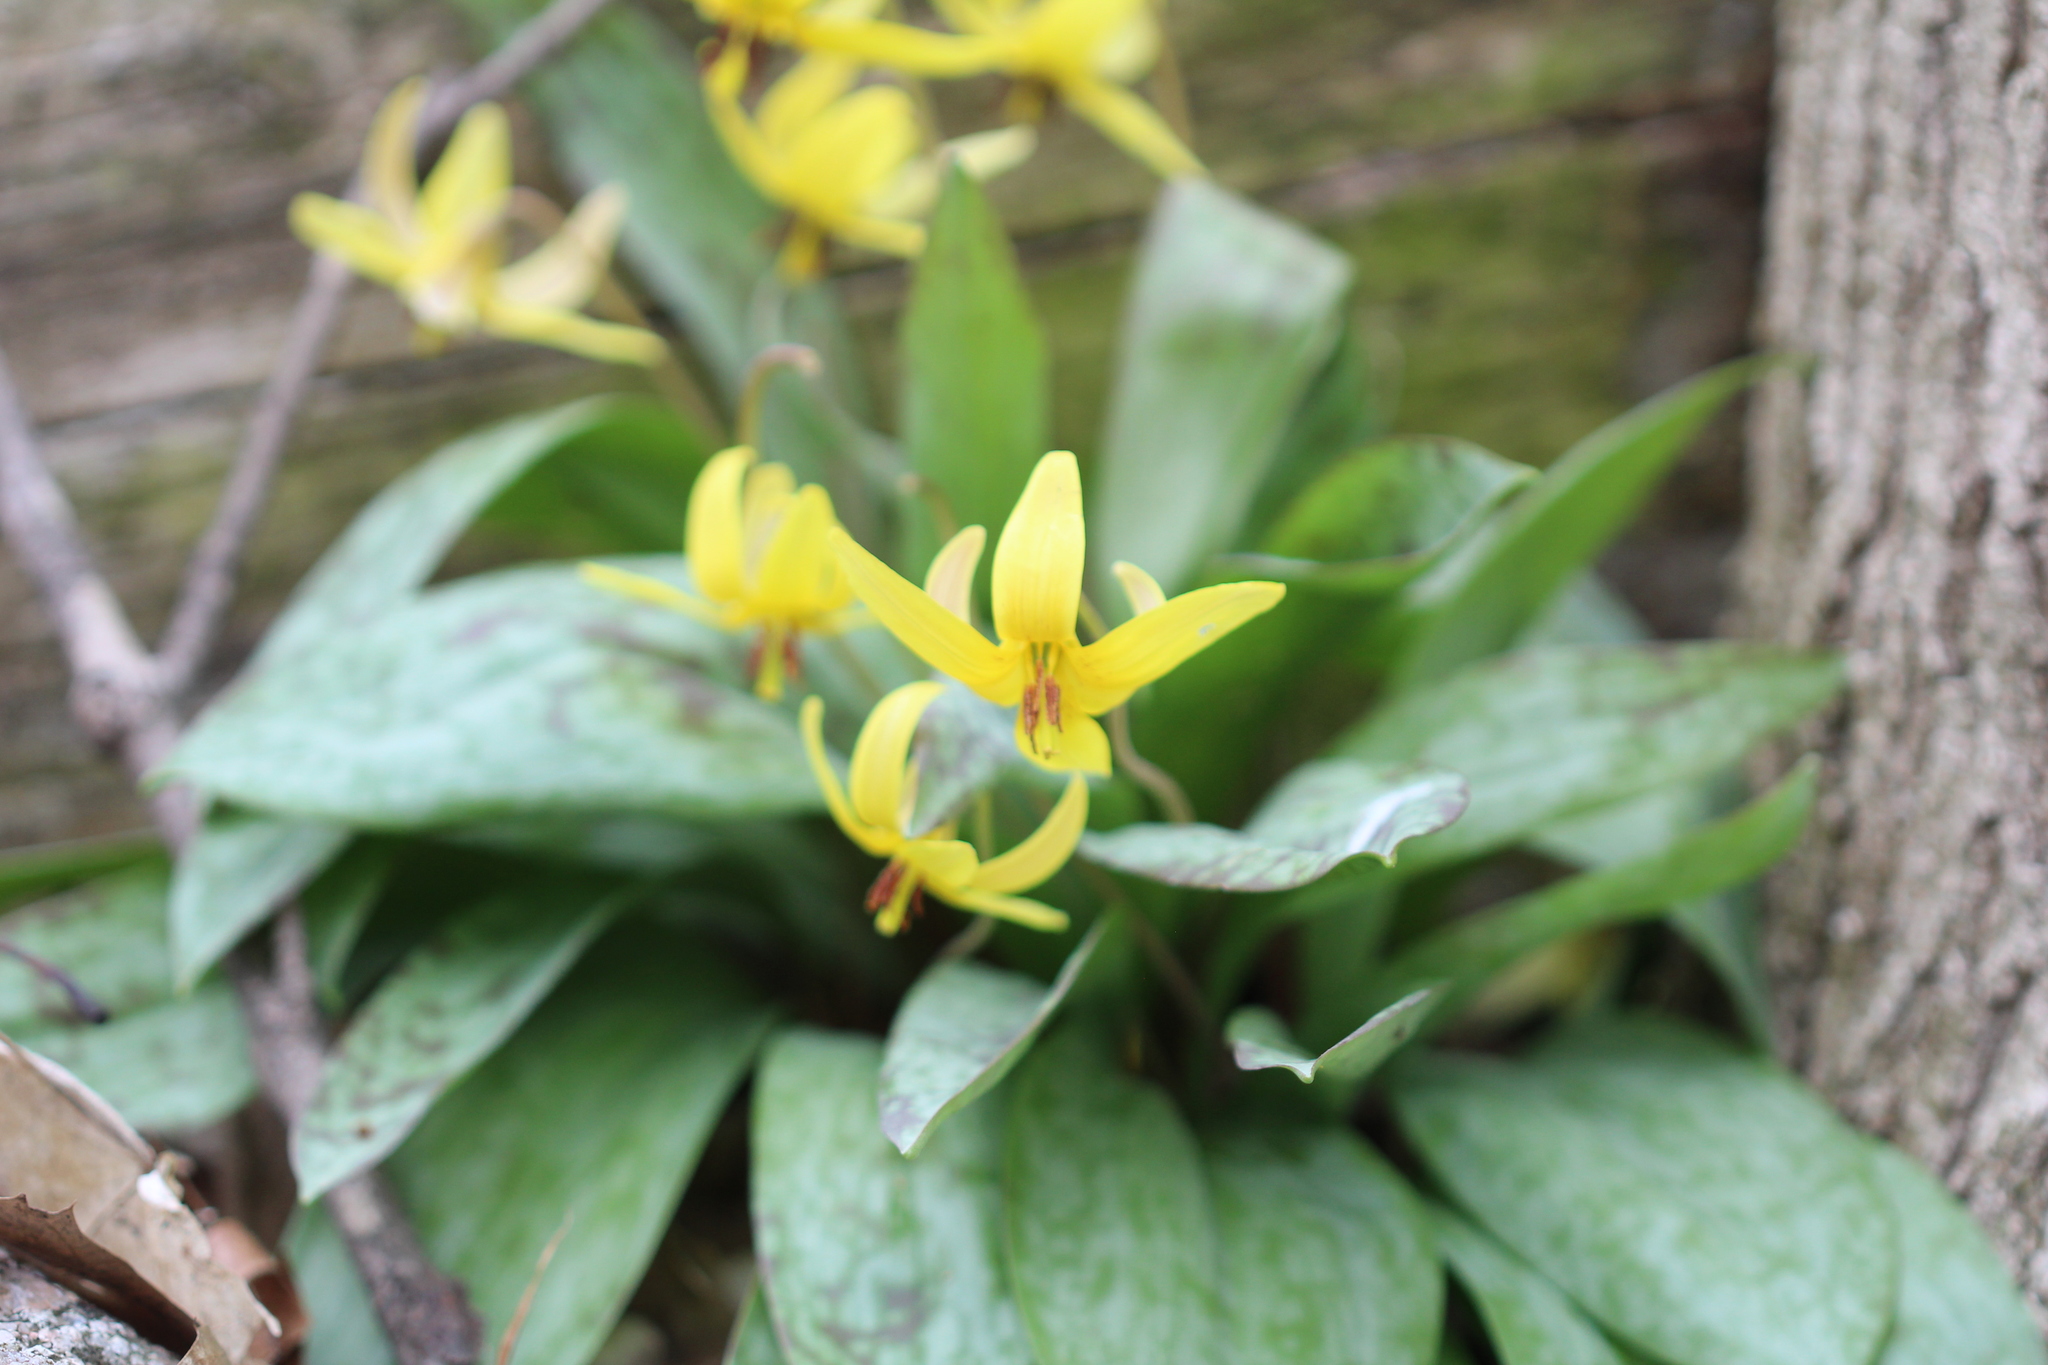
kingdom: Plantae
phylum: Tracheophyta
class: Liliopsida
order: Liliales
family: Liliaceae
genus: Erythronium
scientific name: Erythronium americanum
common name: Yellow adder's-tongue
